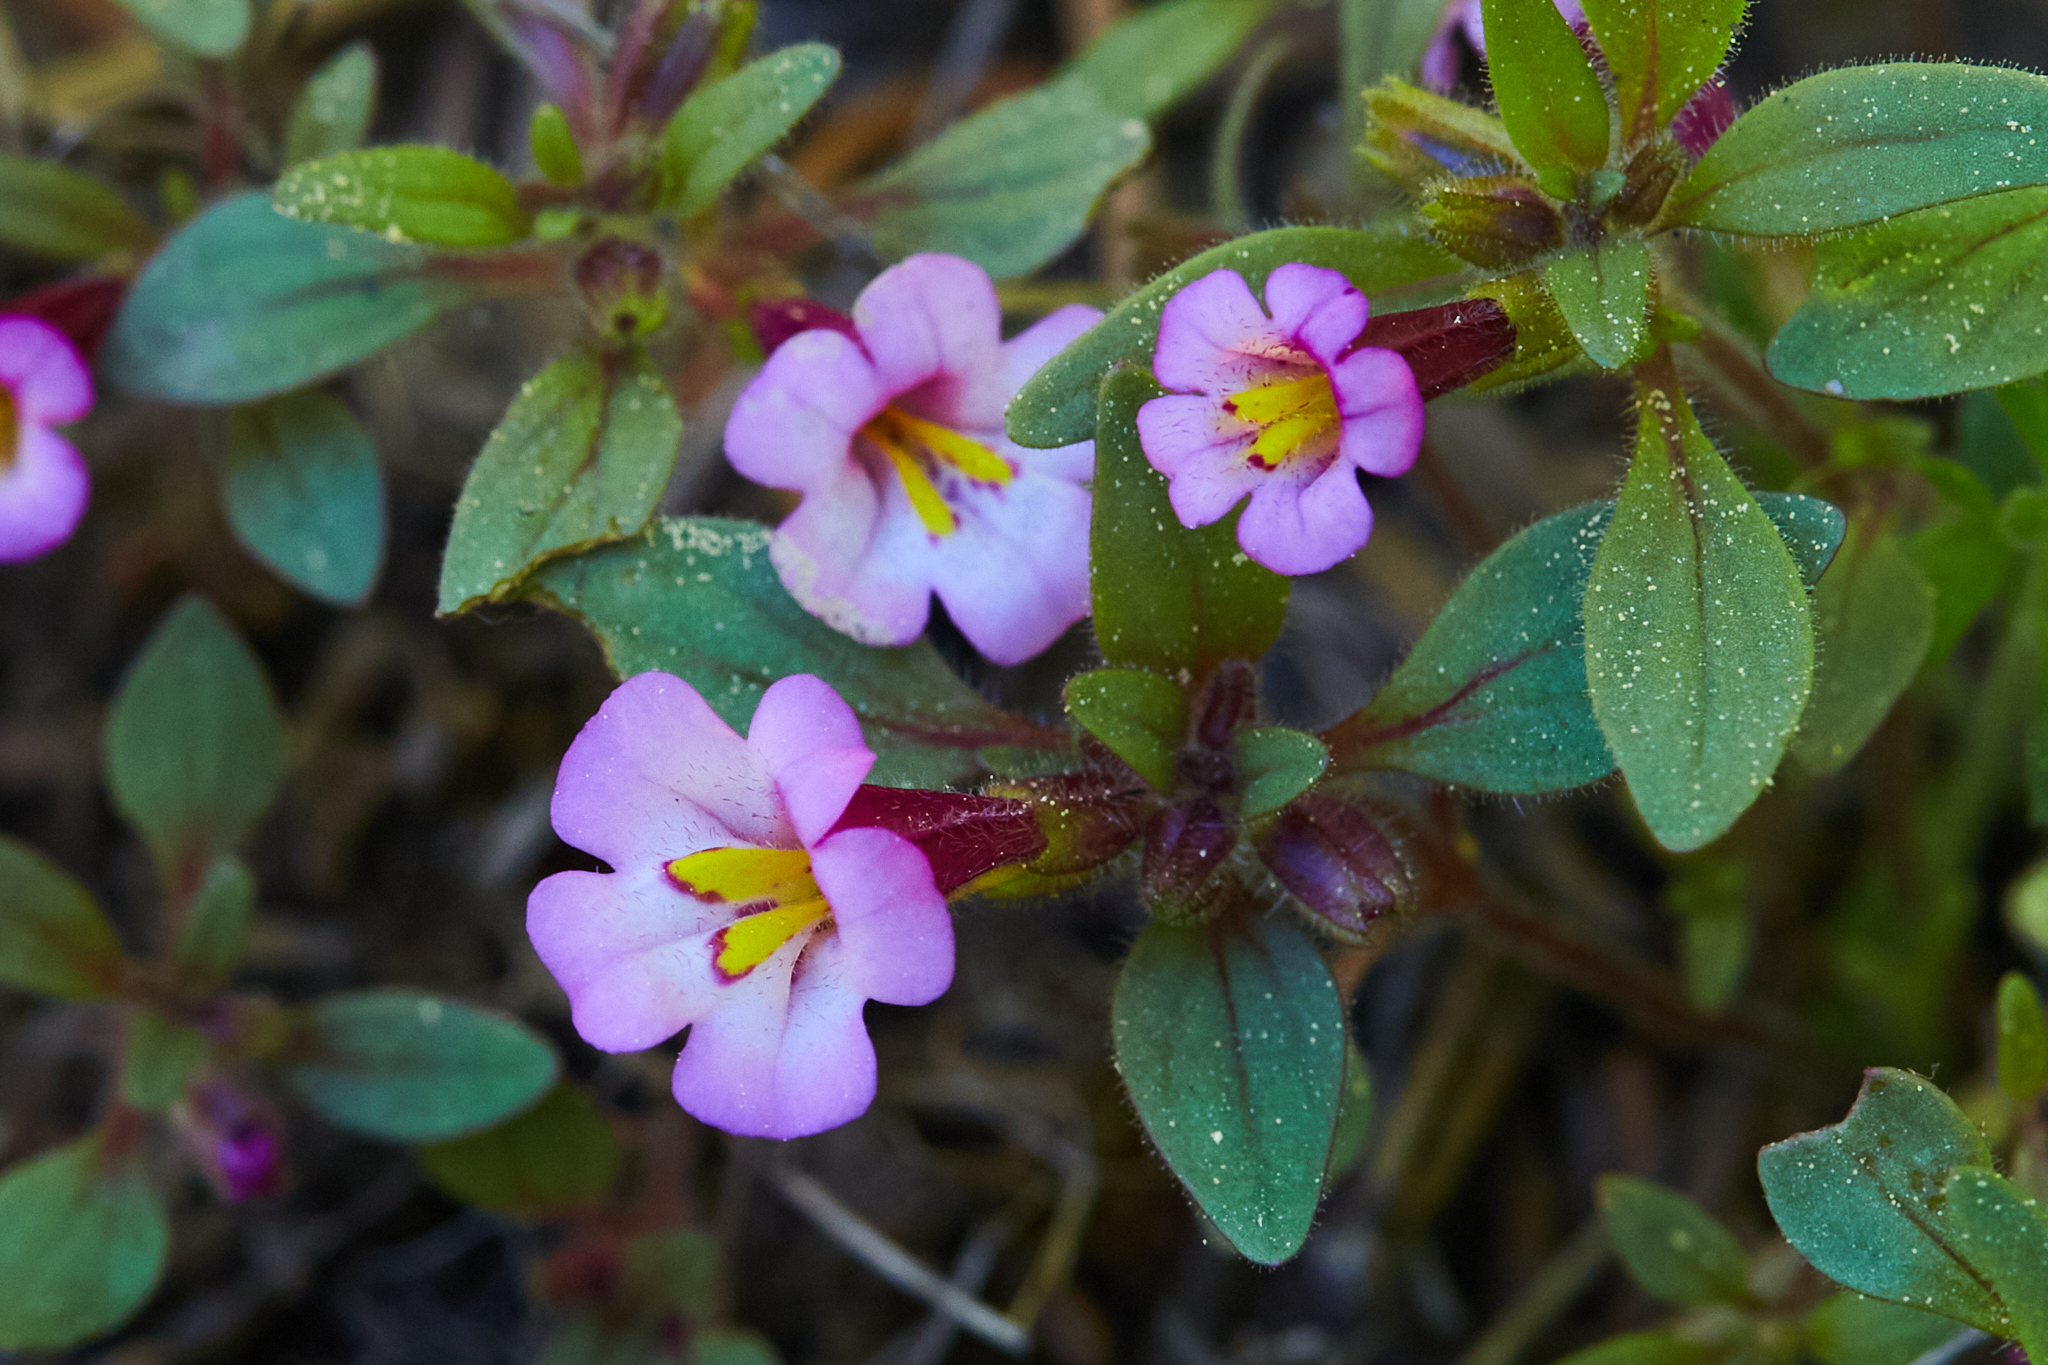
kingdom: Plantae
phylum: Tracheophyta
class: Magnoliopsida
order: Lamiales
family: Phrymaceae
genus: Diplacus
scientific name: Diplacus torreyi
